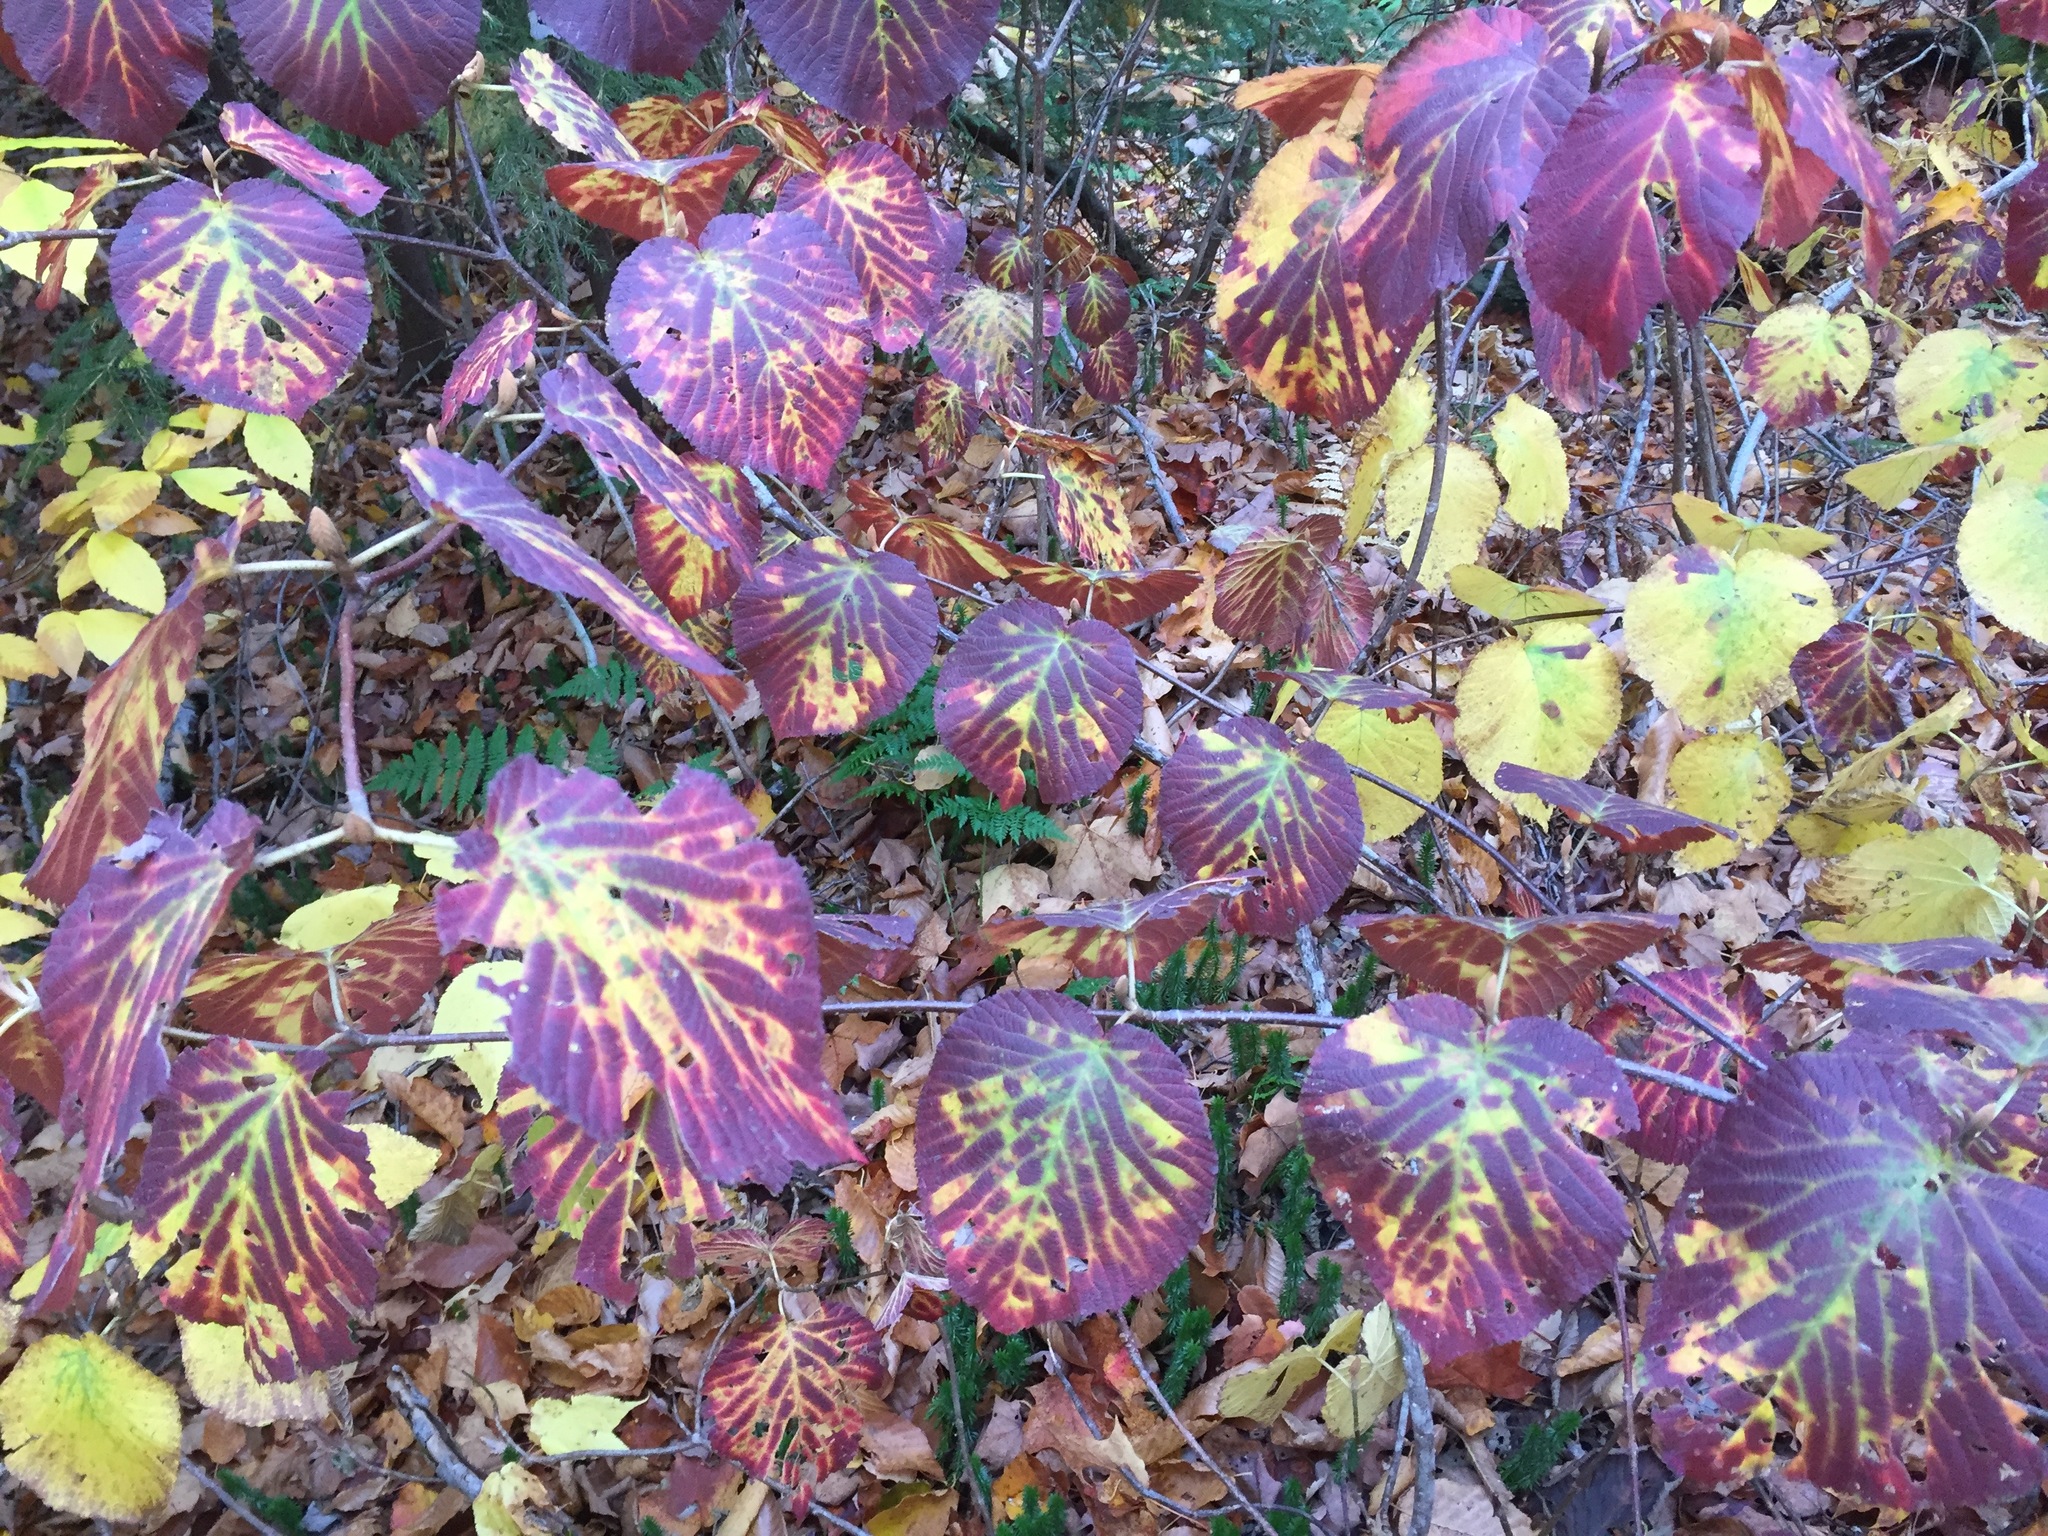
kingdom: Plantae
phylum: Tracheophyta
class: Magnoliopsida
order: Dipsacales
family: Viburnaceae
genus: Viburnum
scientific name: Viburnum lantanoides
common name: Hobblebush
